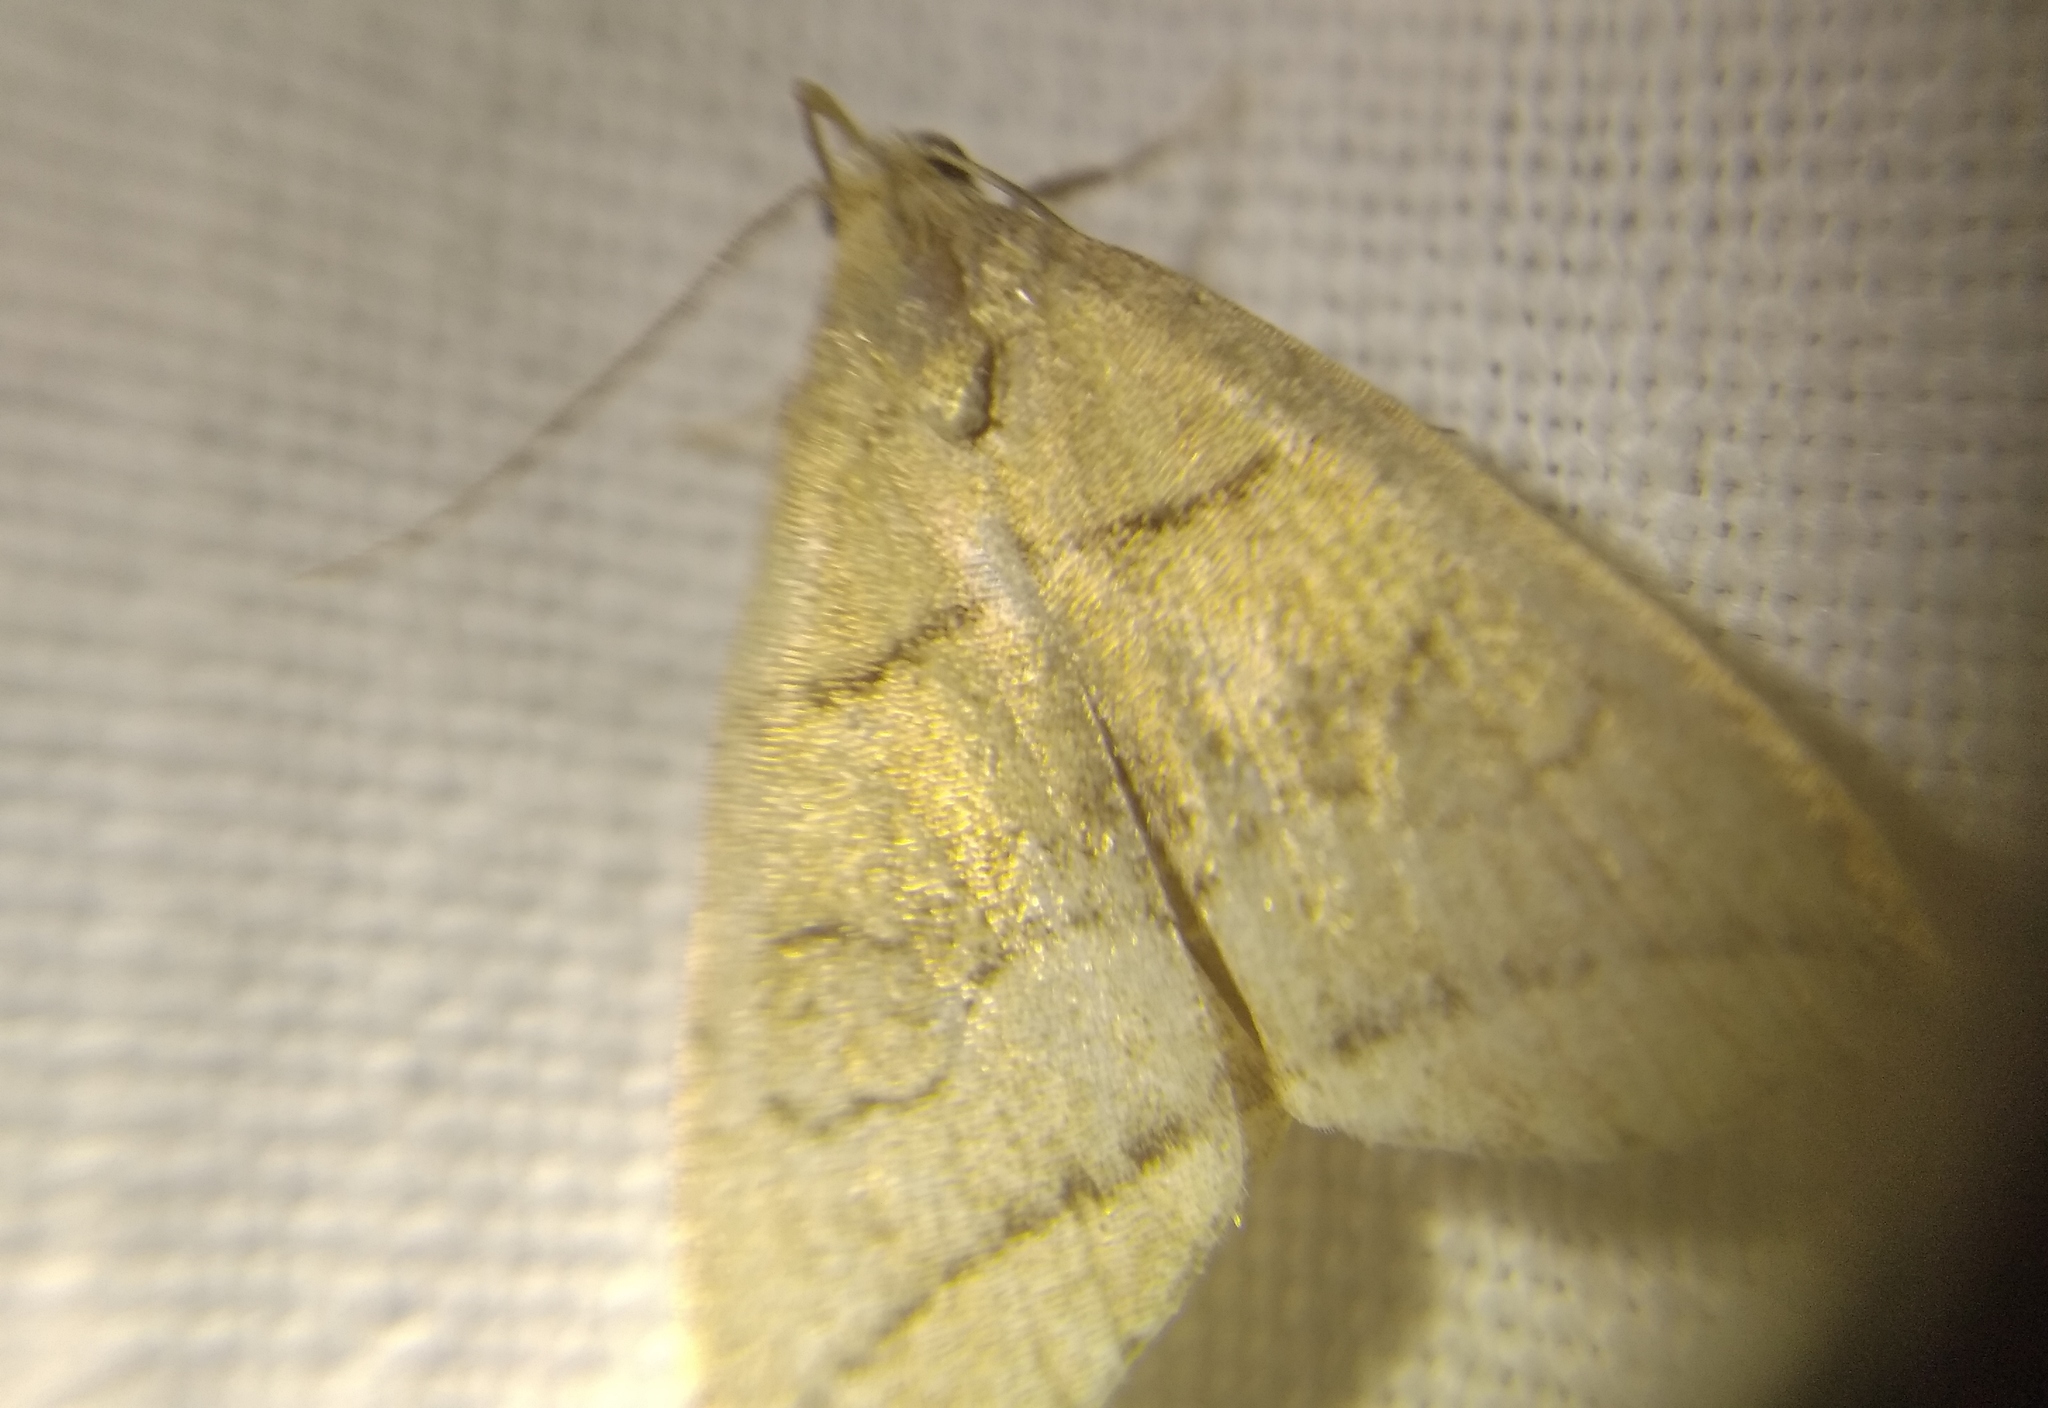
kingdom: Animalia
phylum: Arthropoda
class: Insecta
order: Lepidoptera
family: Erebidae
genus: Herminia
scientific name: Herminia grisealis
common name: Small fan-foot
